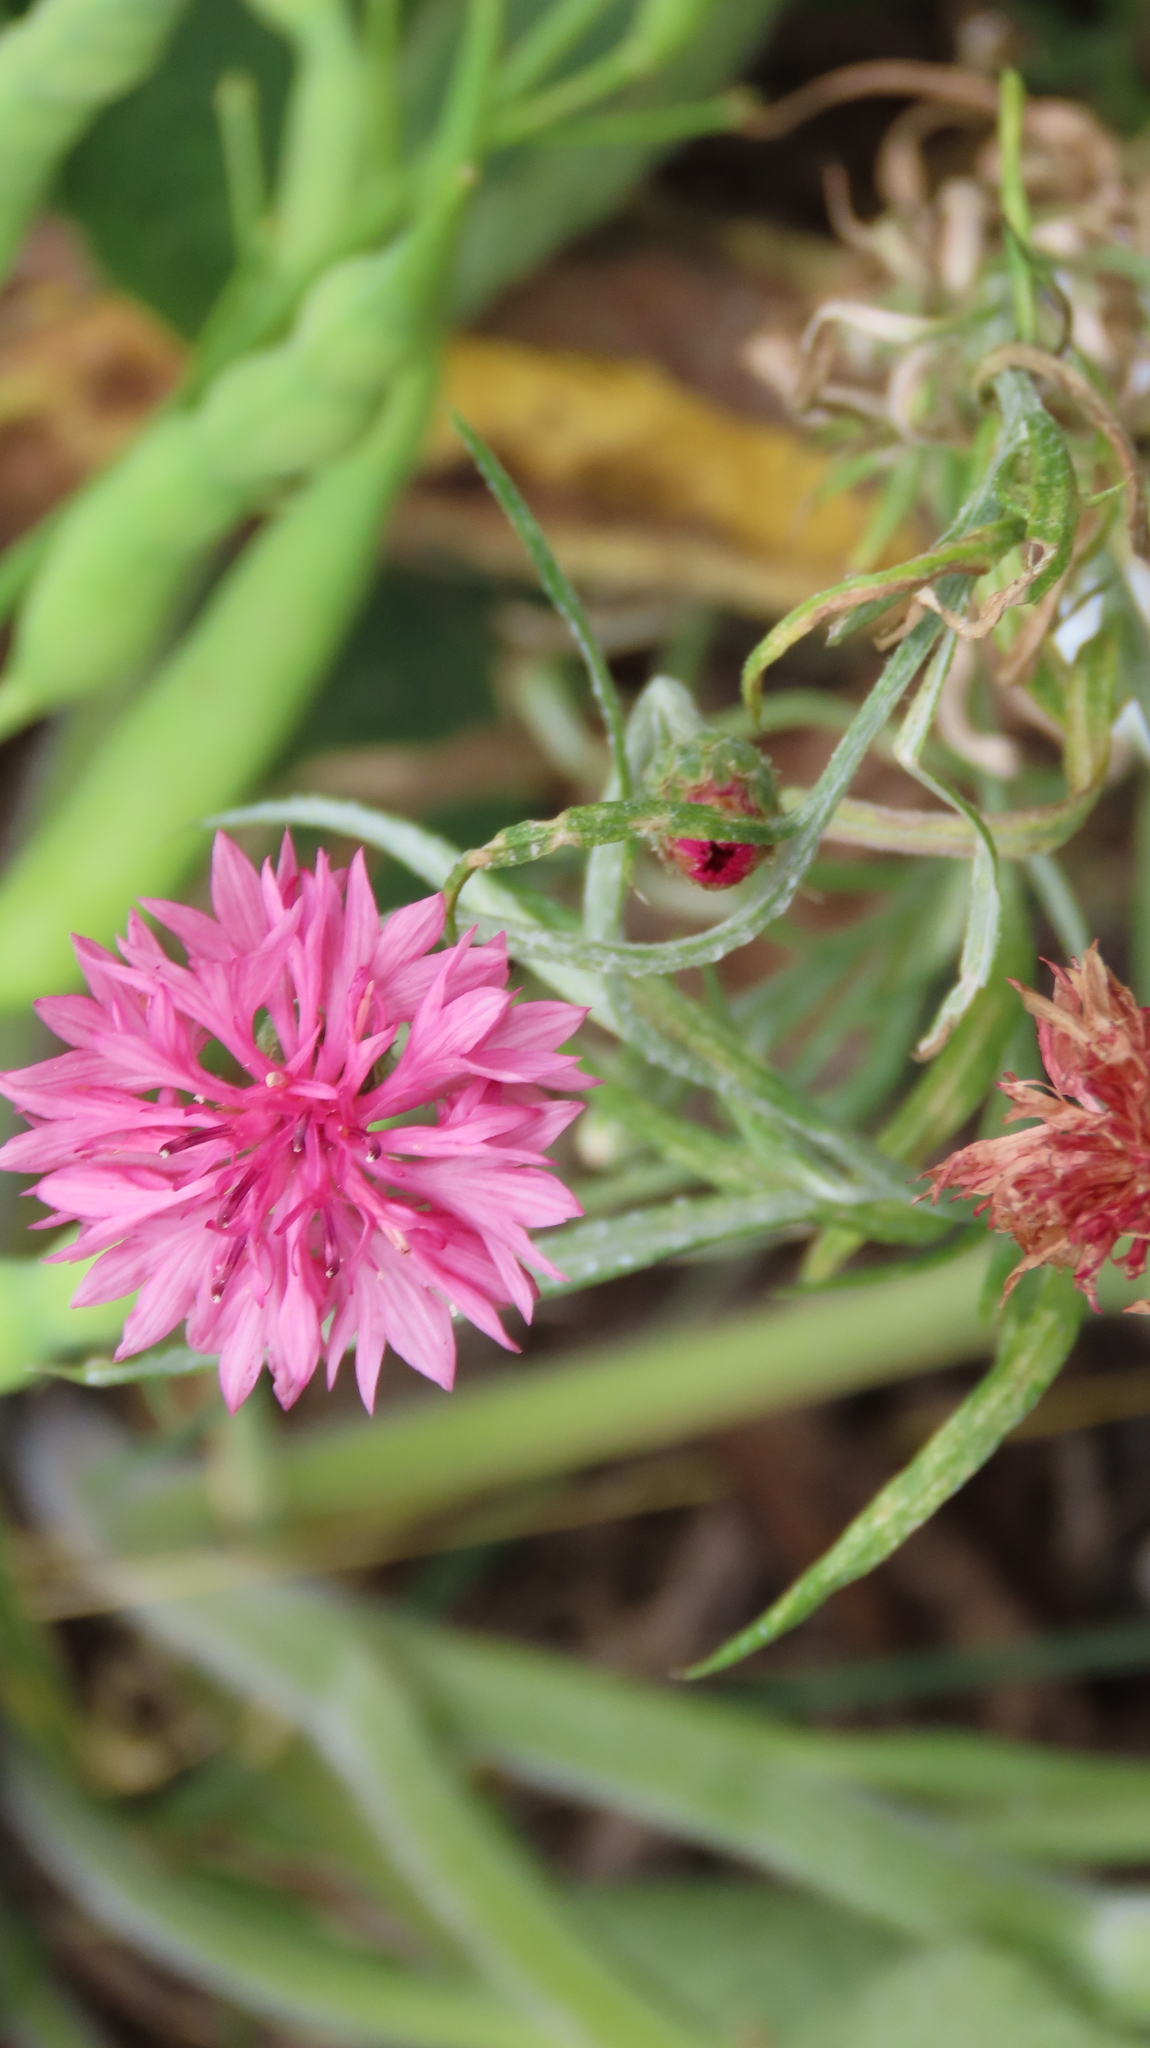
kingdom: Plantae
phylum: Tracheophyta
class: Magnoliopsida
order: Asterales
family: Asteraceae
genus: Centaurea
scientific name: Centaurea cyanus
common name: Cornflower
